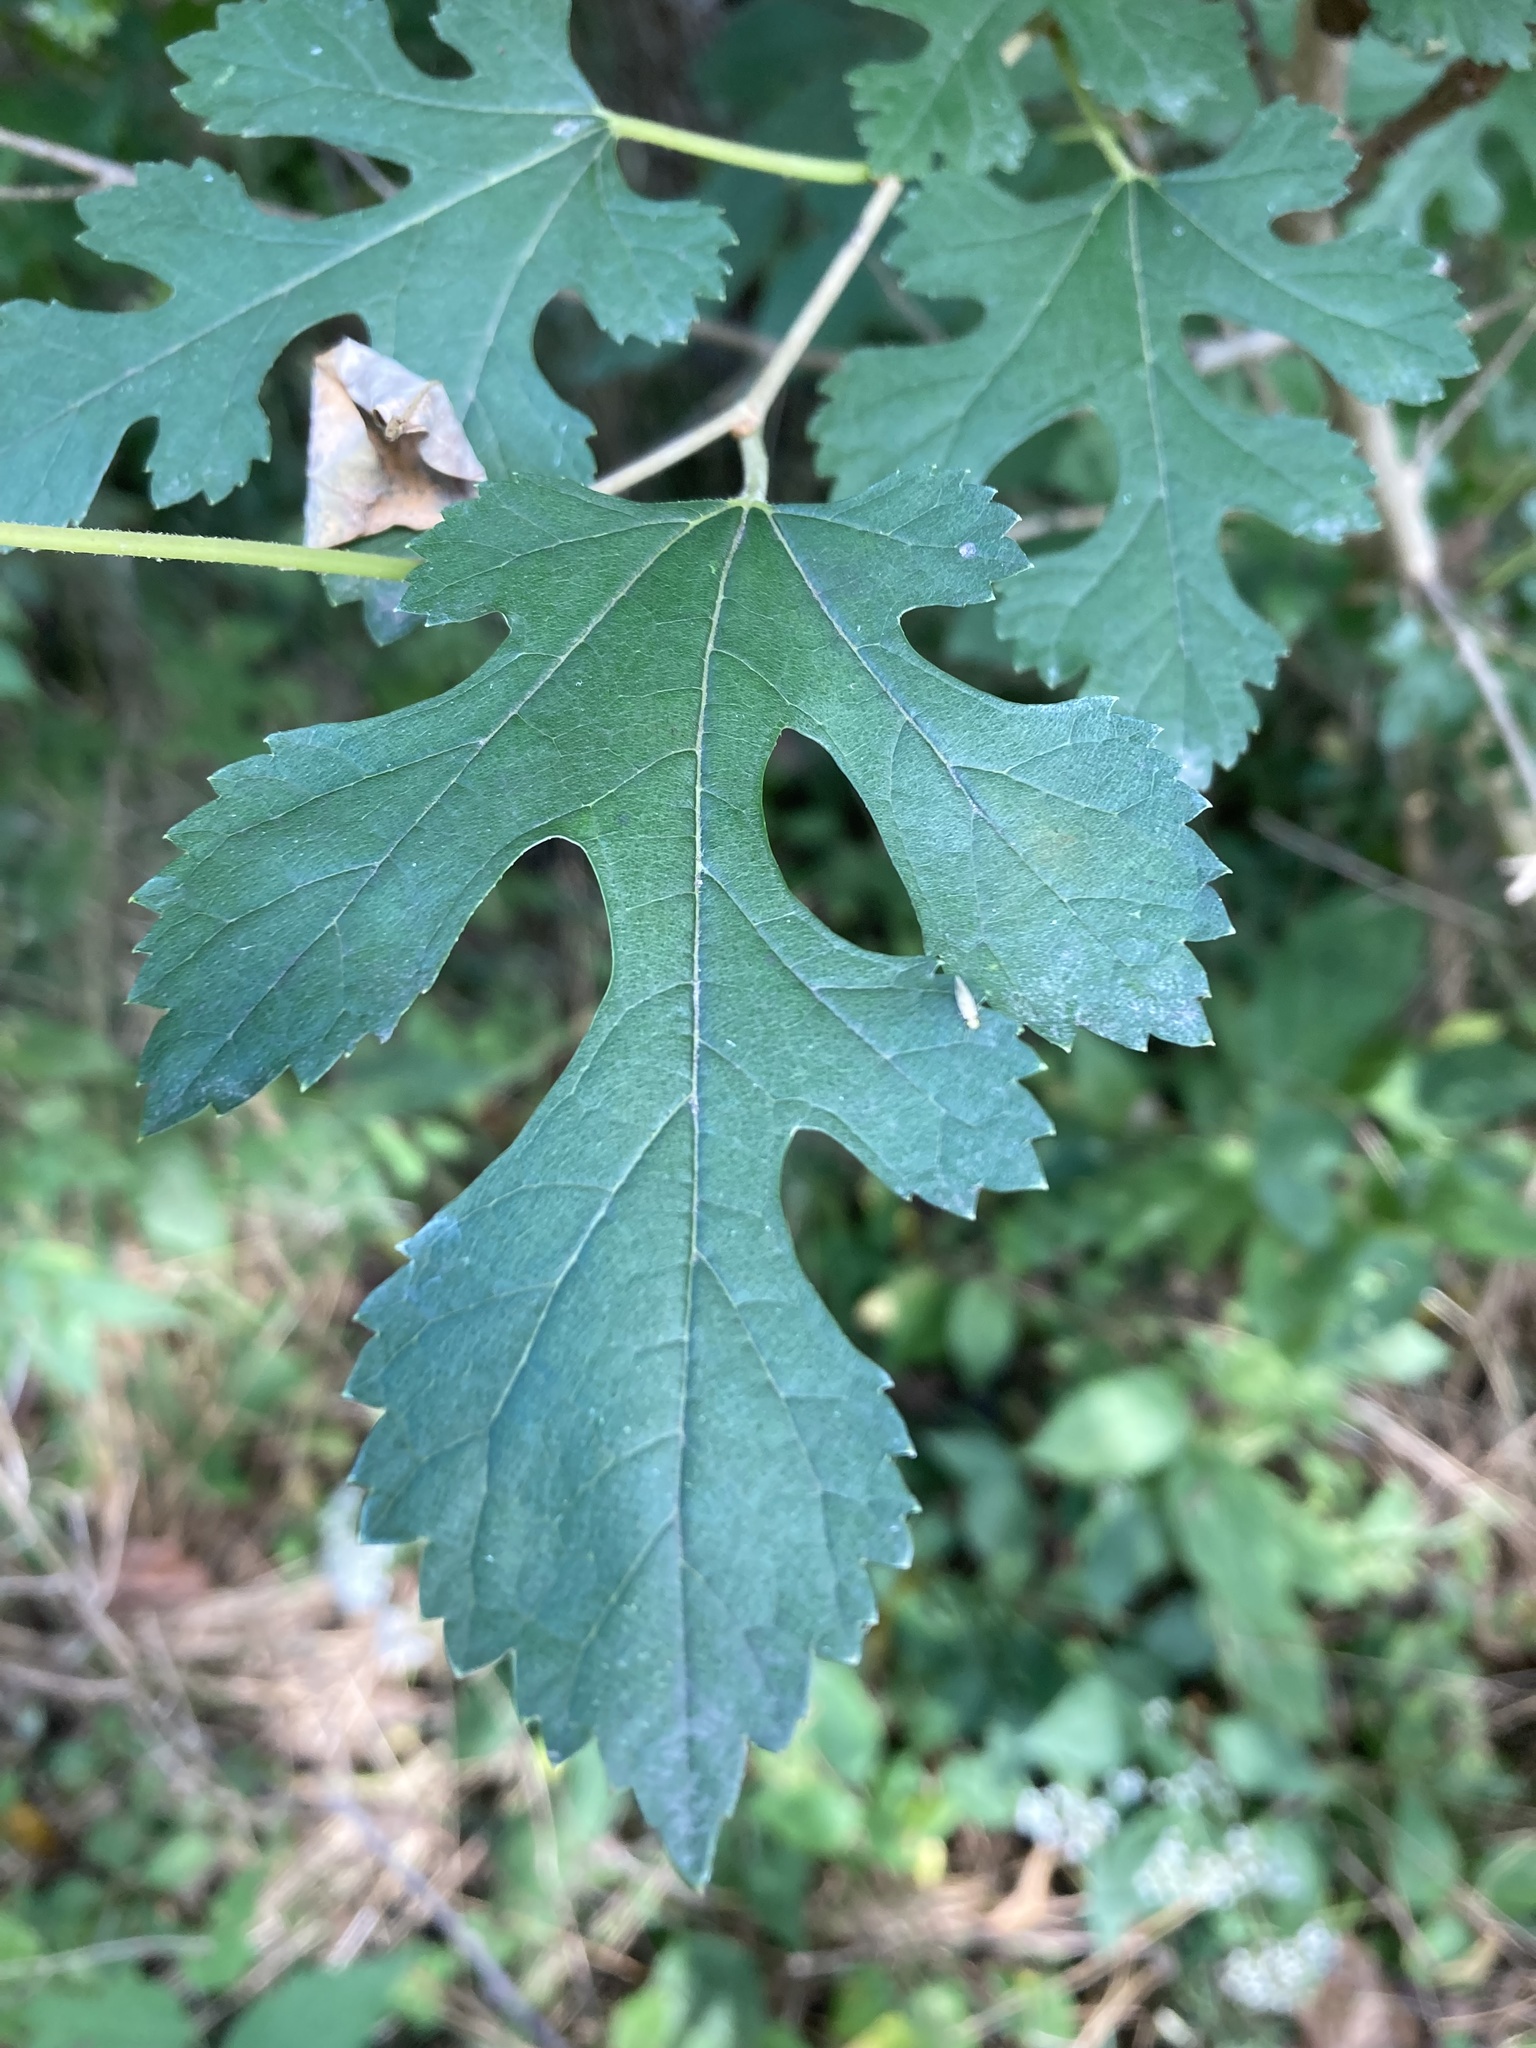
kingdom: Plantae
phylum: Tracheophyta
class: Magnoliopsida
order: Rosales
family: Moraceae
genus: Morus
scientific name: Morus alba
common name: White mulberry
